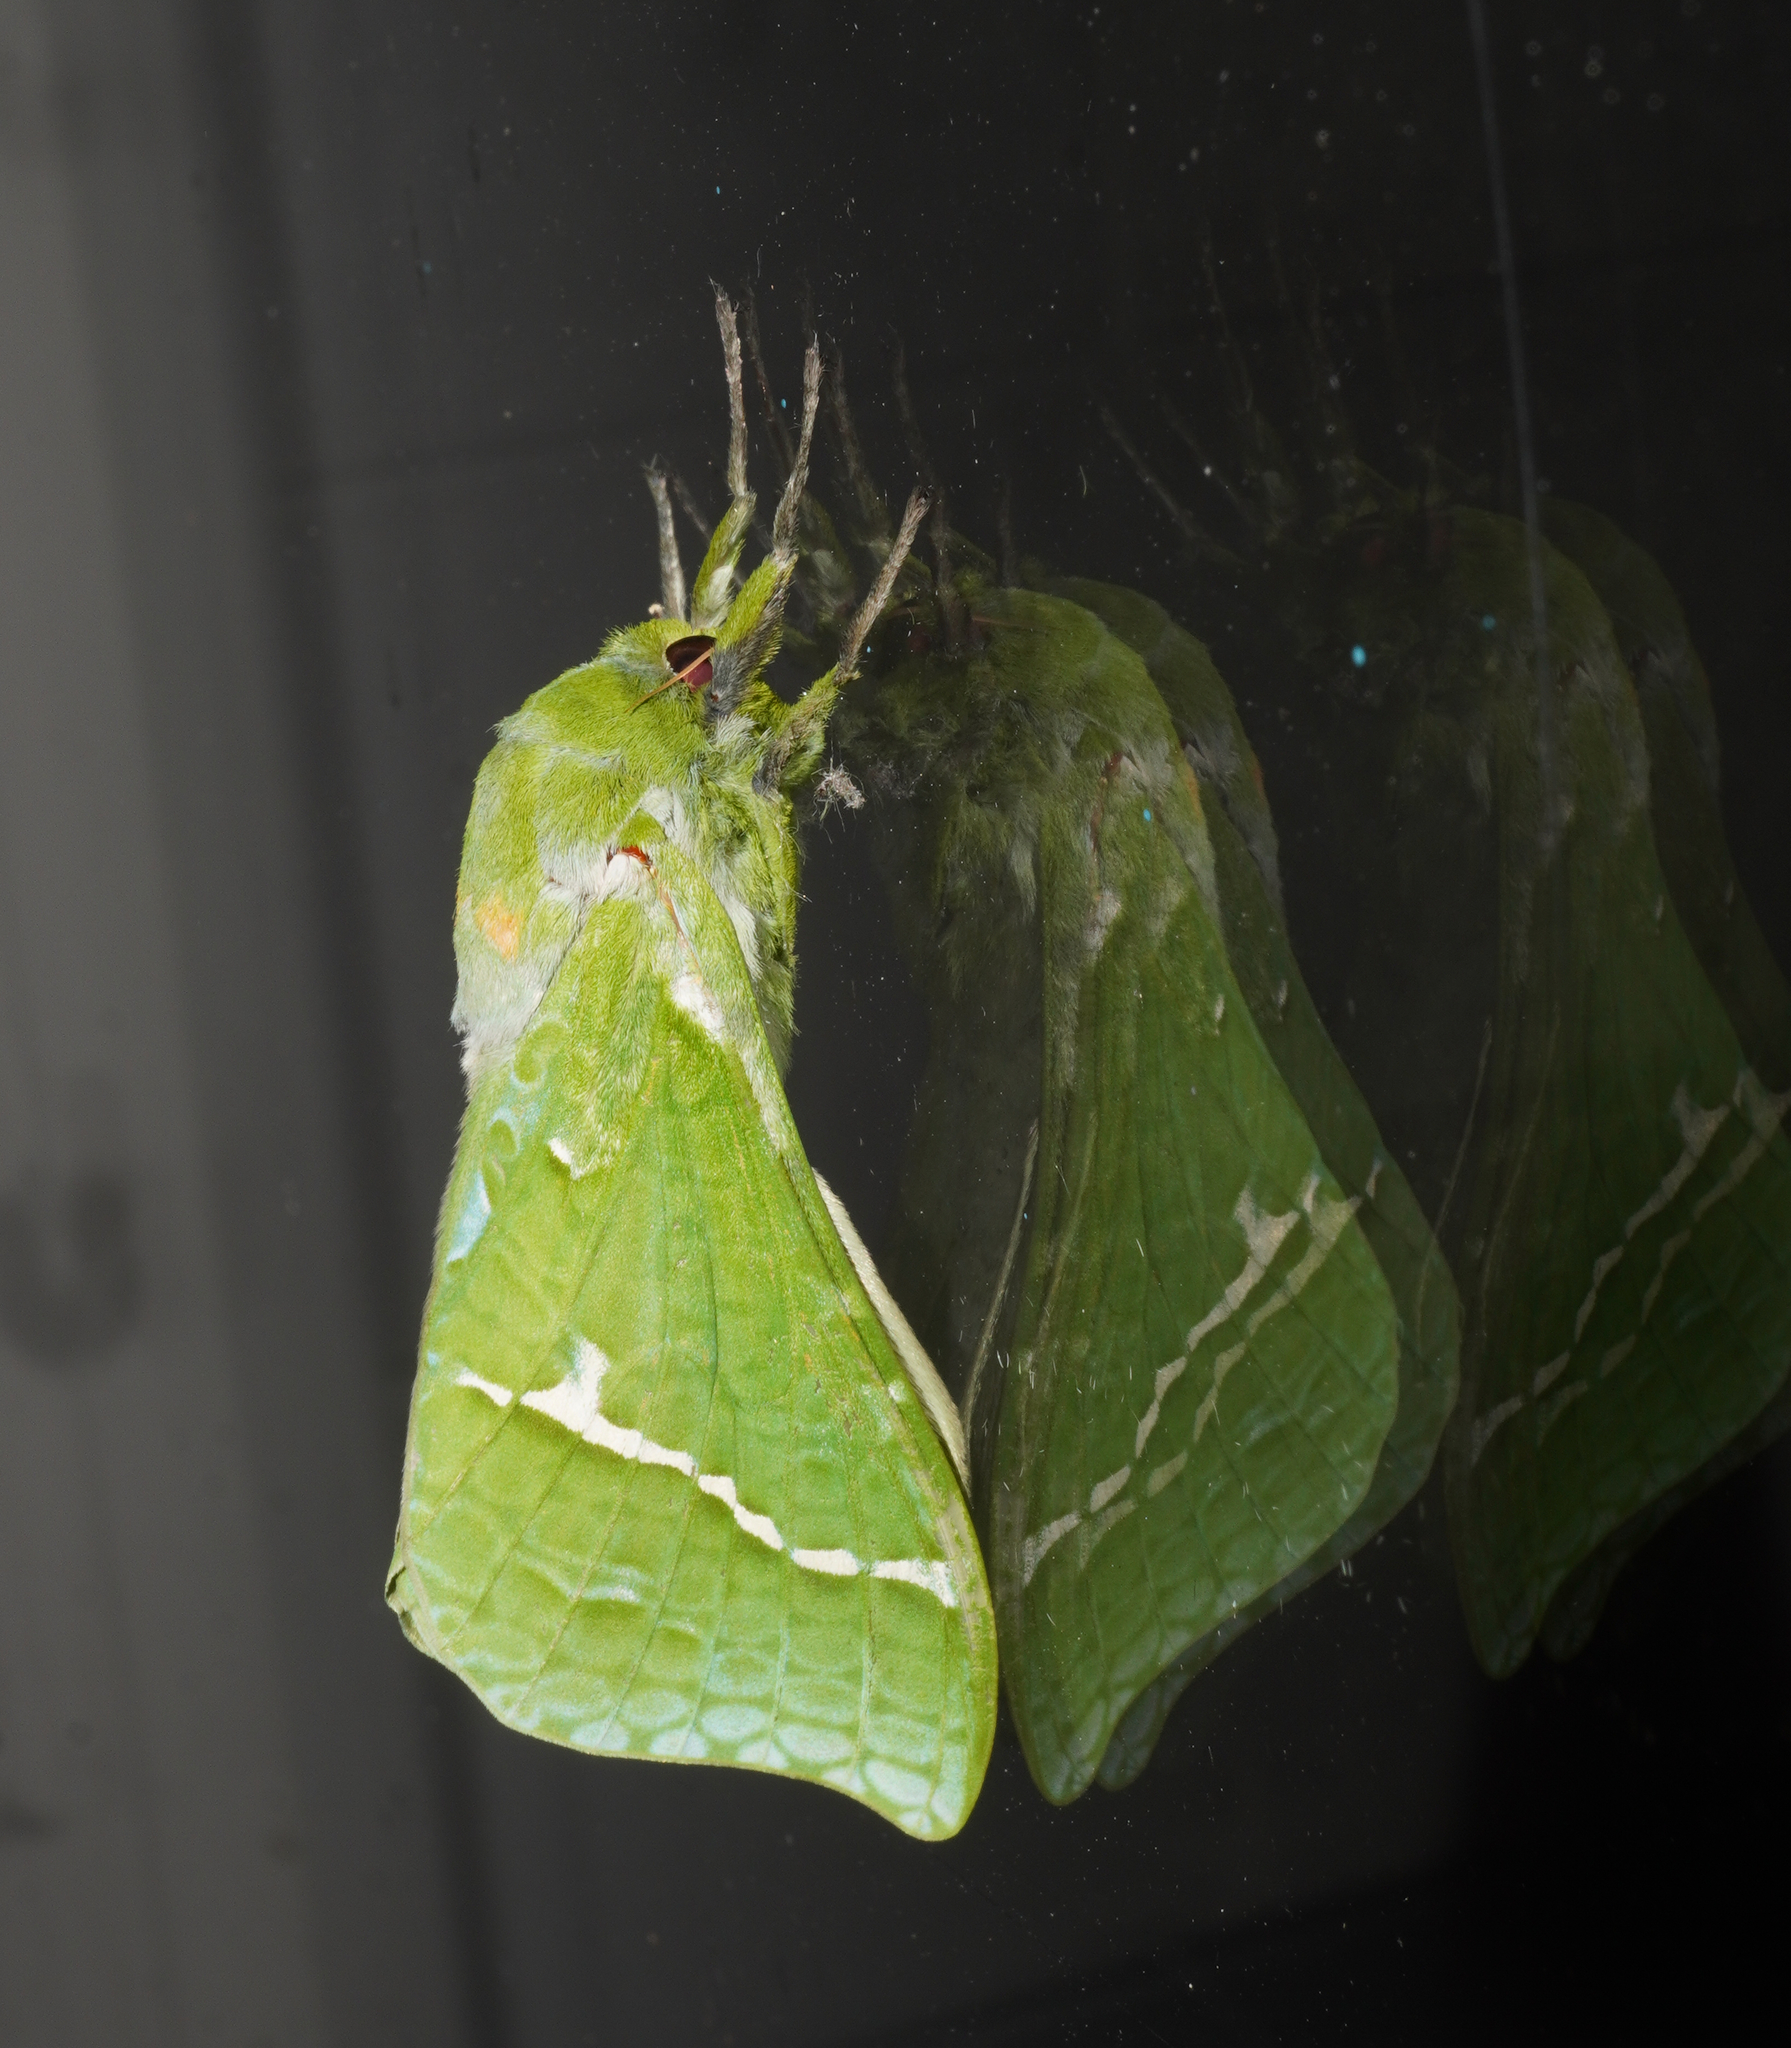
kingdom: Animalia
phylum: Arthropoda
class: Insecta
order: Lepidoptera
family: Hepialidae
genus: Aenetus
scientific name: Aenetus virescens
